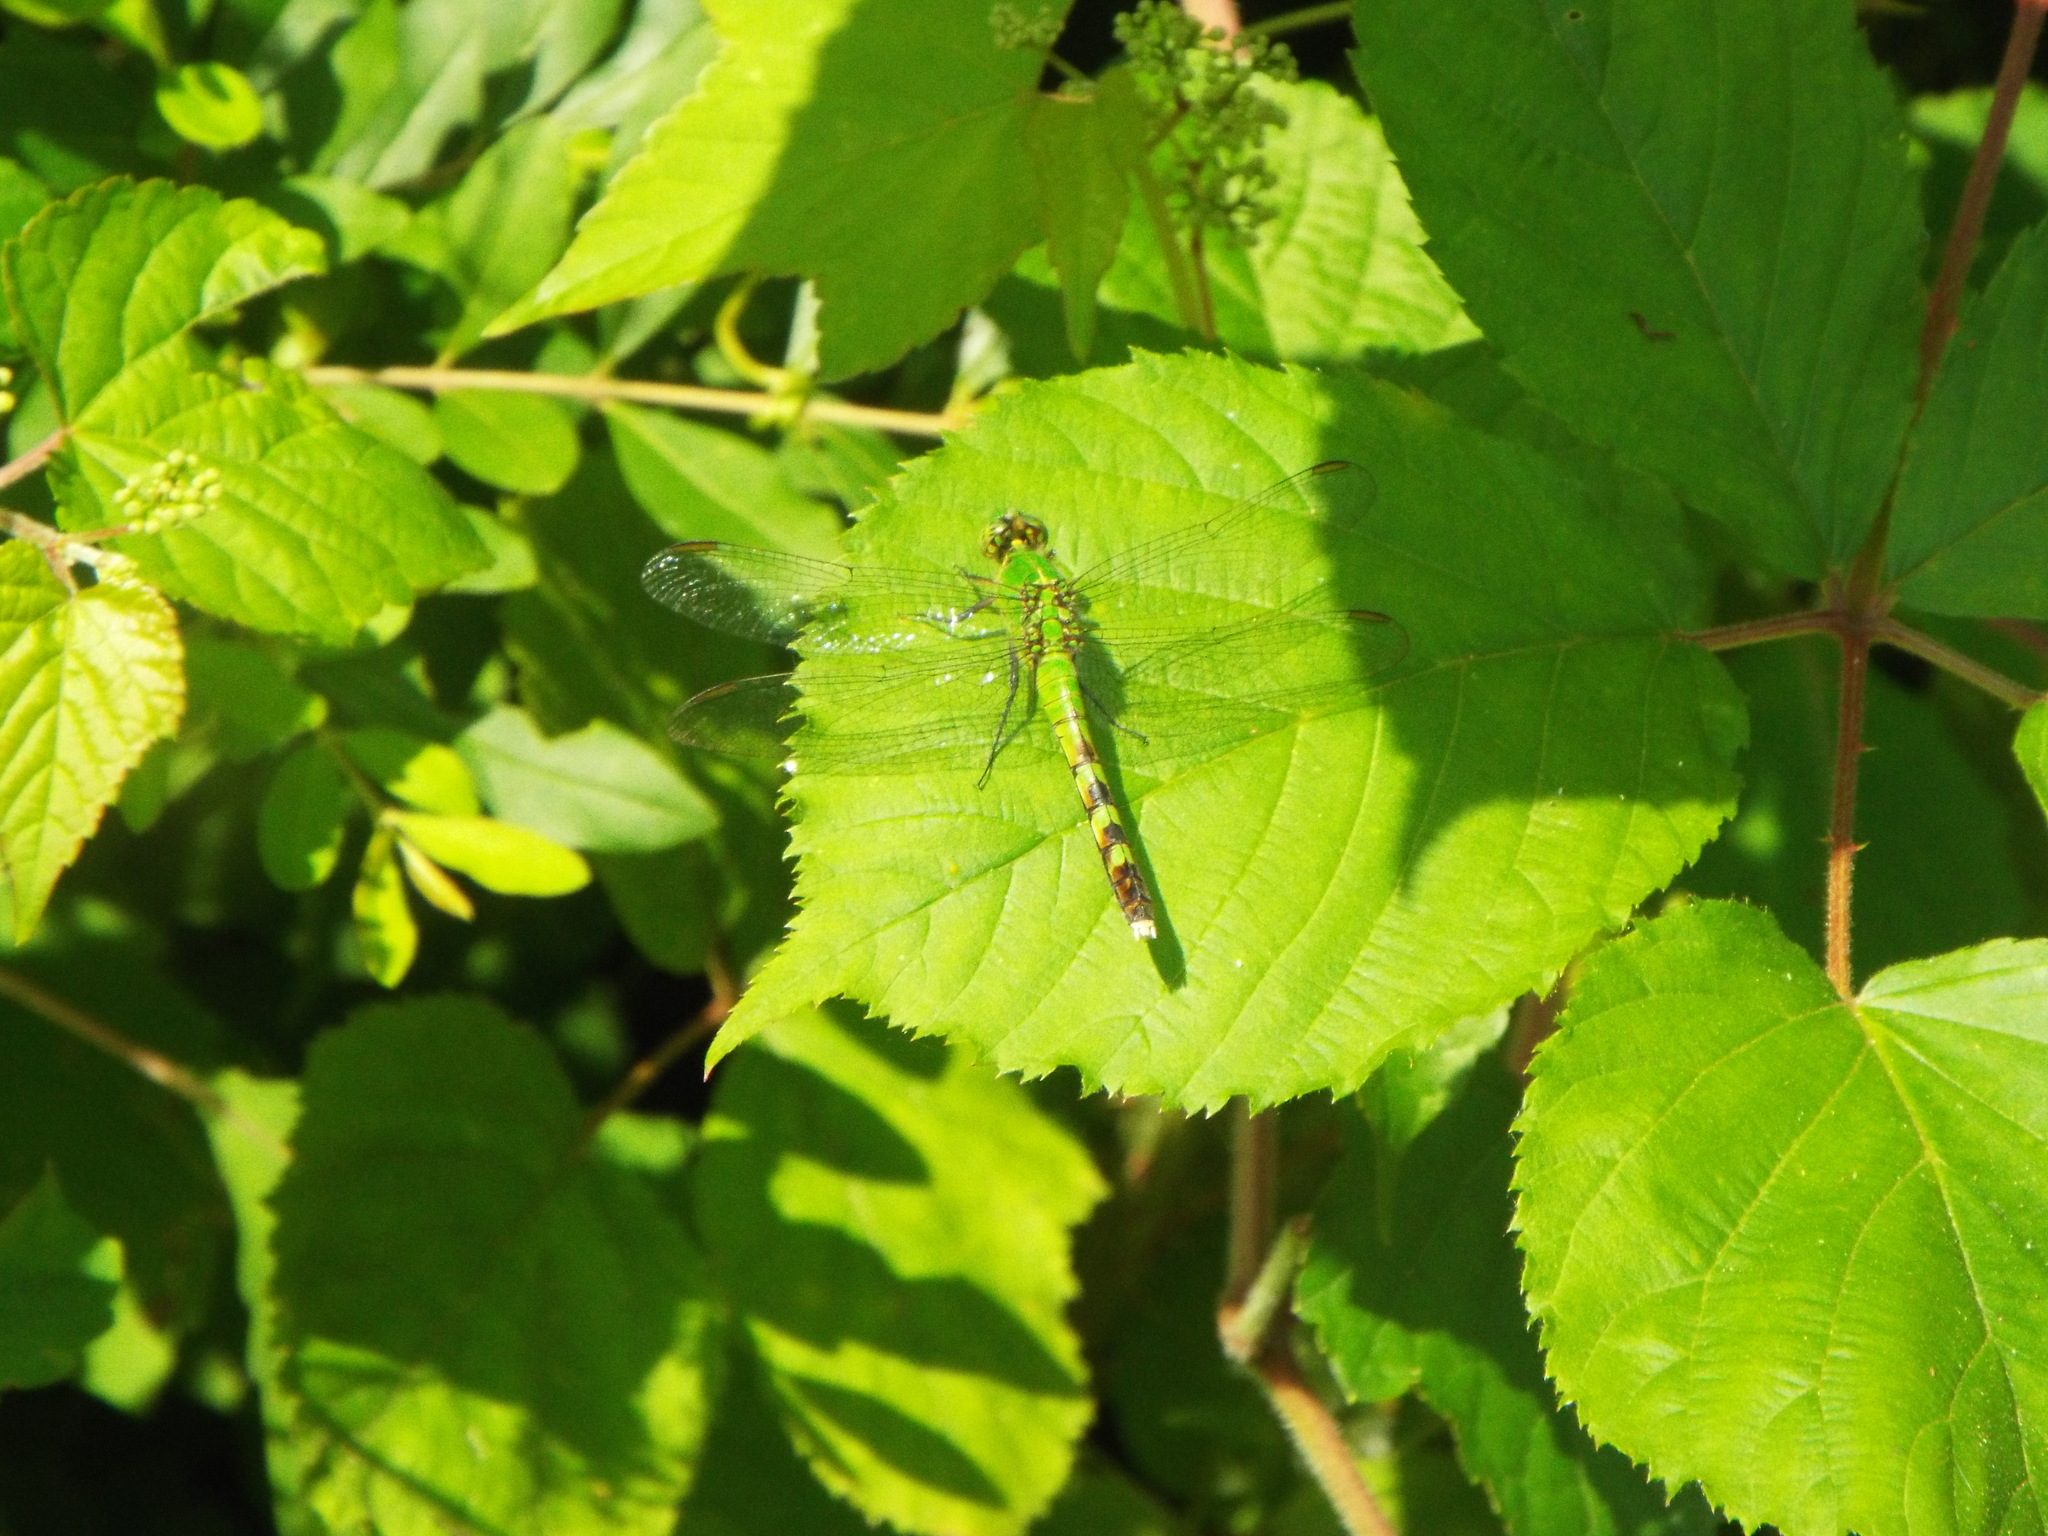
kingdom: Animalia
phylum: Arthropoda
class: Insecta
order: Odonata
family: Libellulidae
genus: Erythemis
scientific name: Erythemis simplicicollis
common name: Eastern pondhawk
